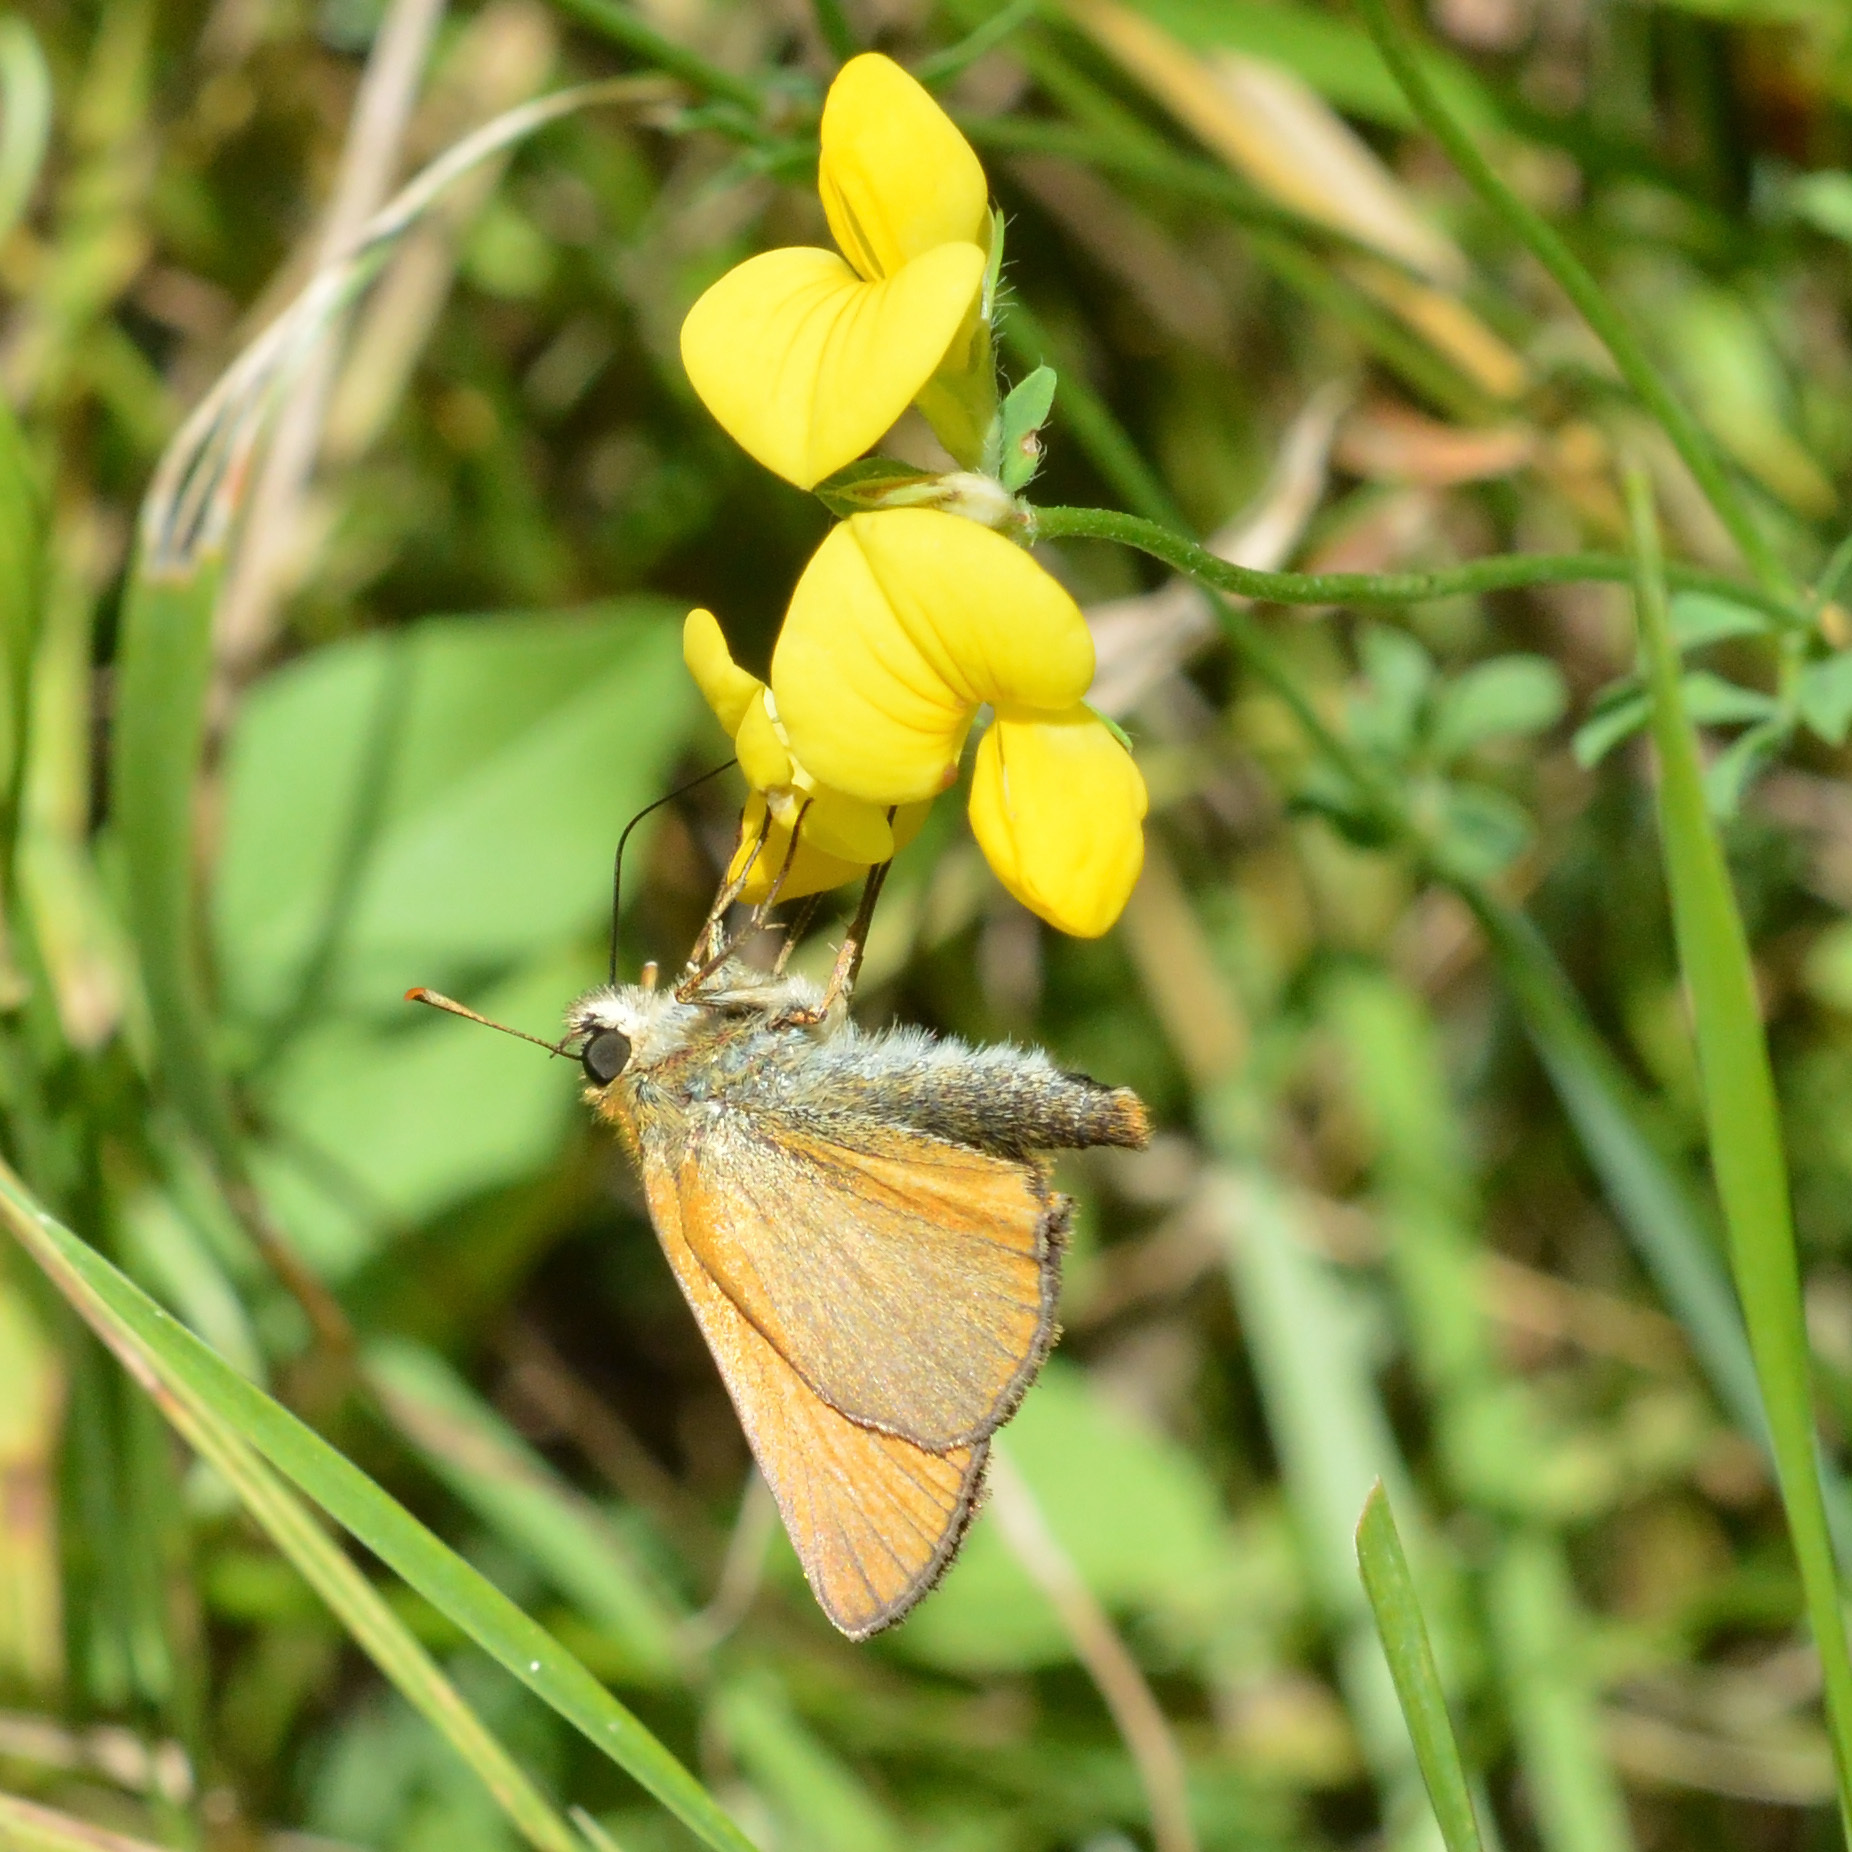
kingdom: Animalia
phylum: Arthropoda
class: Insecta
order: Lepidoptera
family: Hesperiidae
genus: Thymelicus
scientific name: Thymelicus sylvestris
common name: Small skipper
